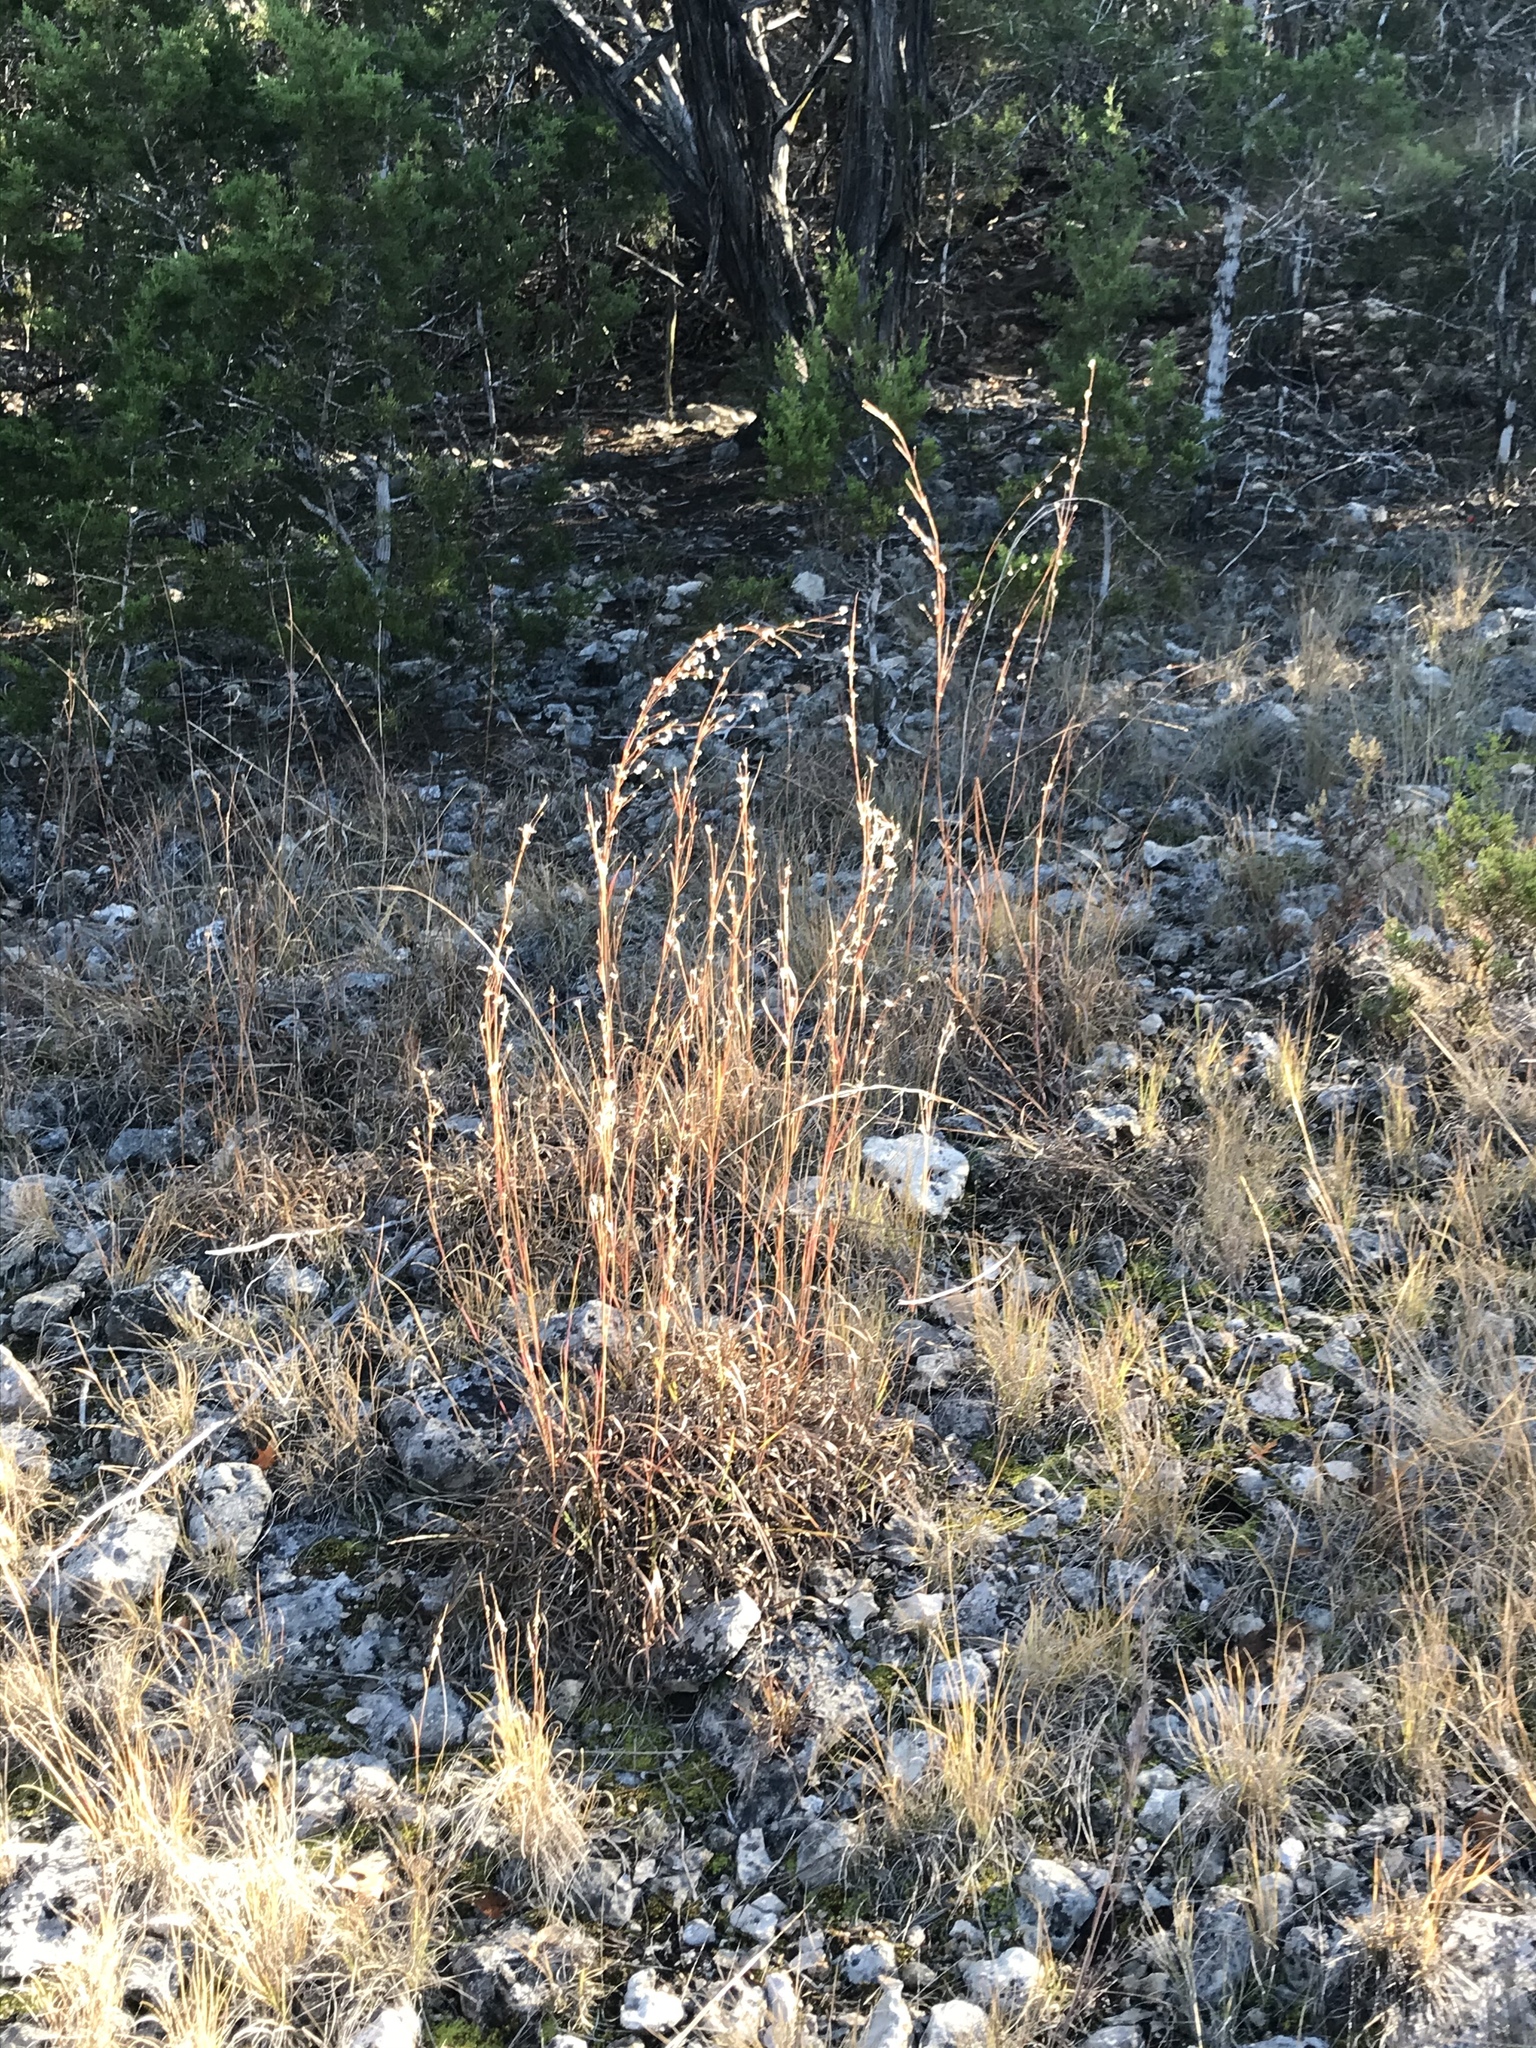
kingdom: Plantae
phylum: Tracheophyta
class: Liliopsida
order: Poales
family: Poaceae
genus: Schizachyrium
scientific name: Schizachyrium scoparium
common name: Little bluestem
